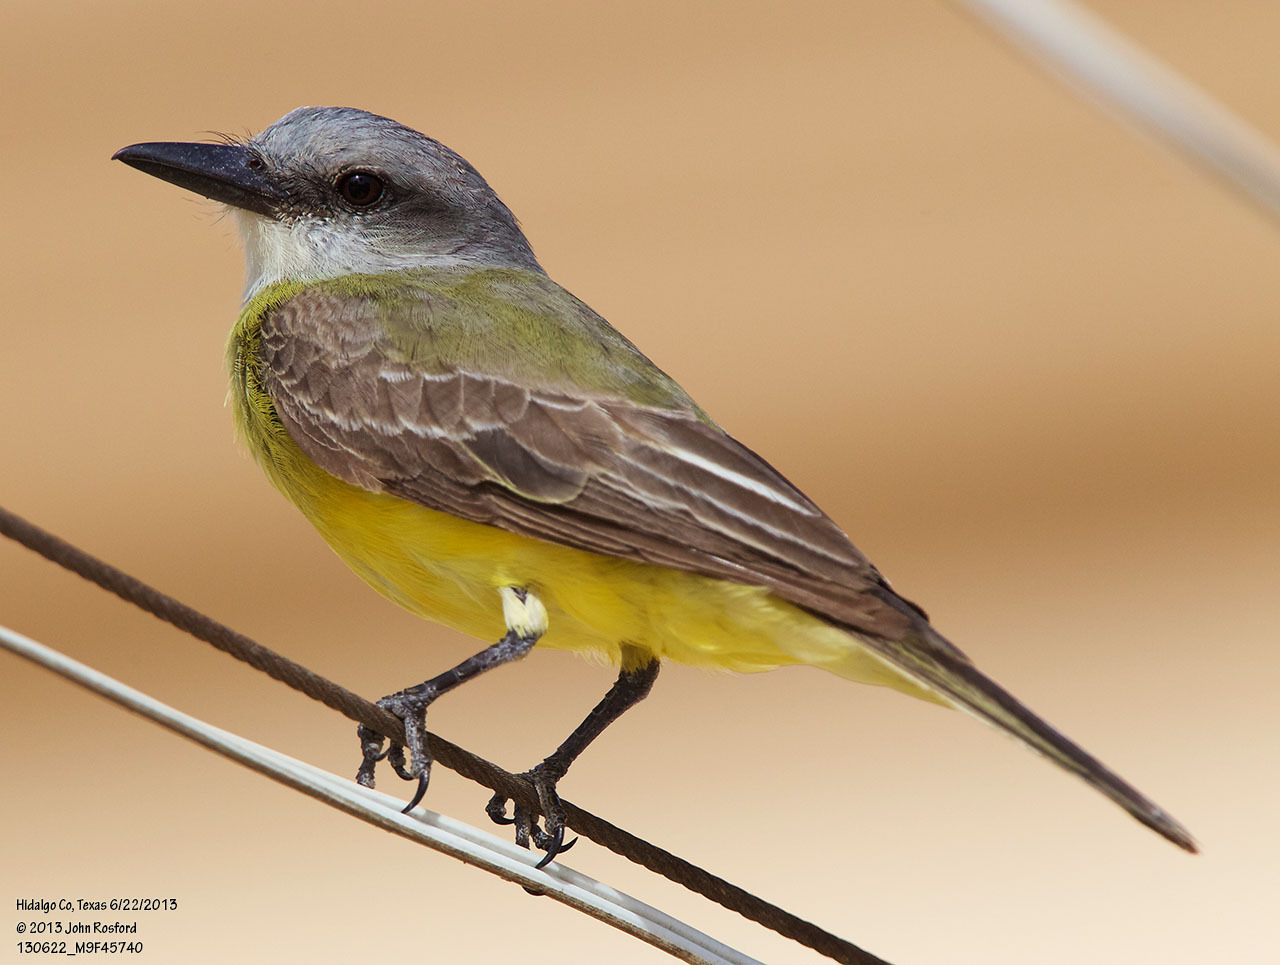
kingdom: Animalia
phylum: Chordata
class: Aves
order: Passeriformes
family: Tyrannidae
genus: Tyrannus
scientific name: Tyrannus melancholicus
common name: Tropical kingbird
